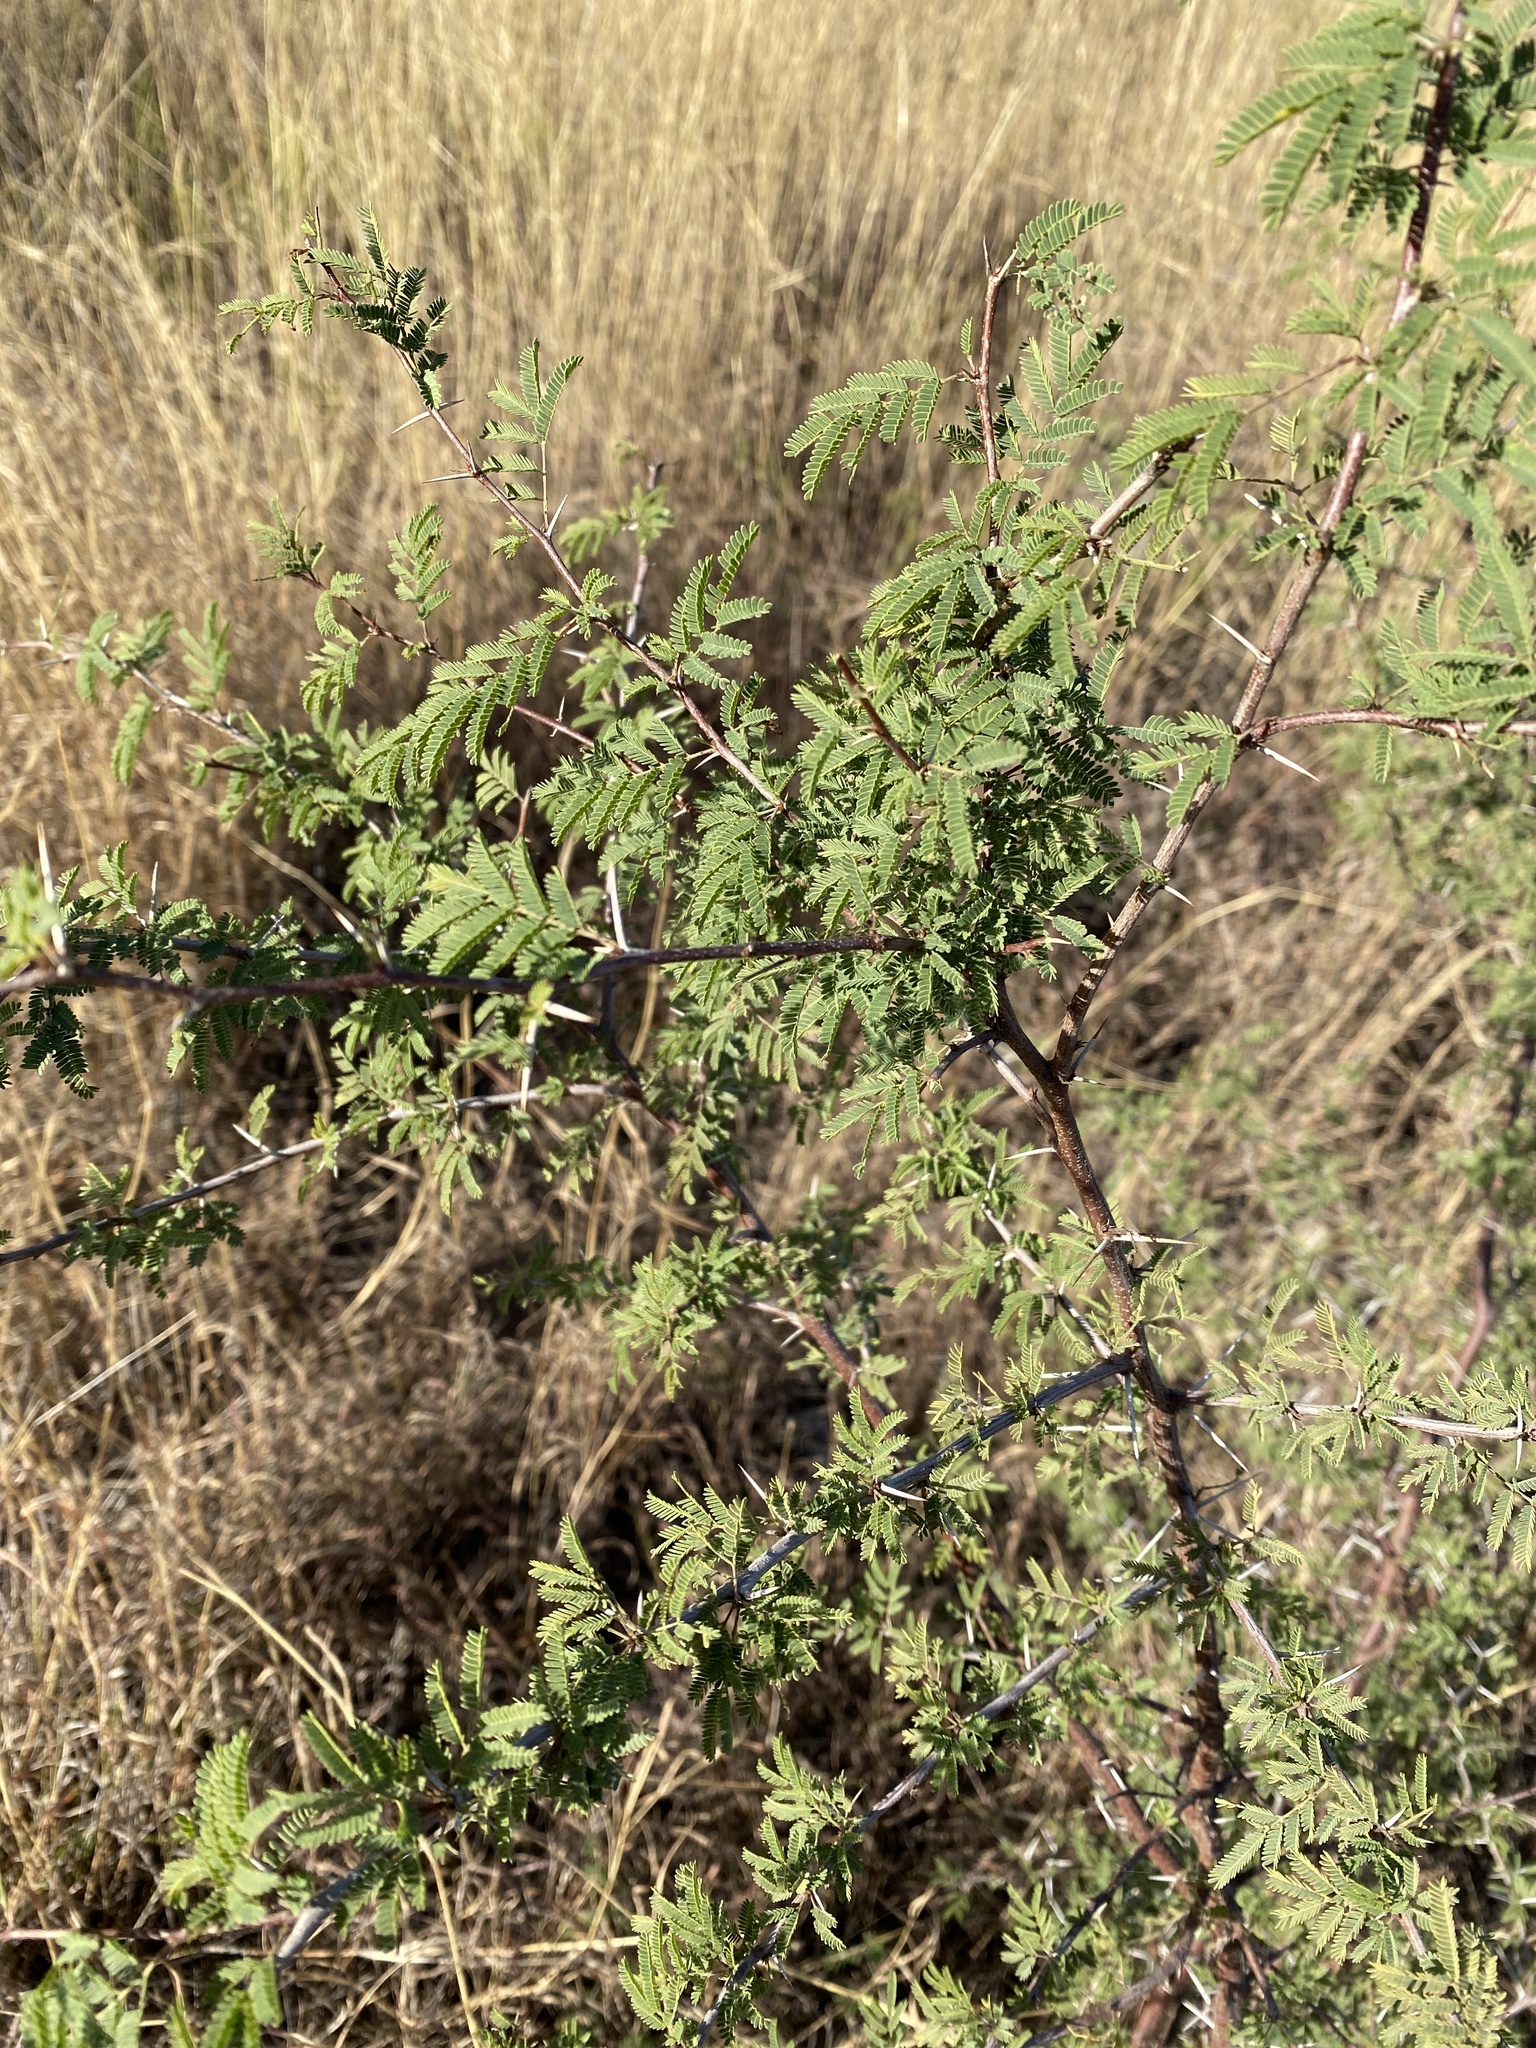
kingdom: Plantae
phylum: Tracheophyta
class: Magnoliopsida
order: Fabales
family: Fabaceae
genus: Vachellia
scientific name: Vachellia farnesiana
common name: Sweet acacia
